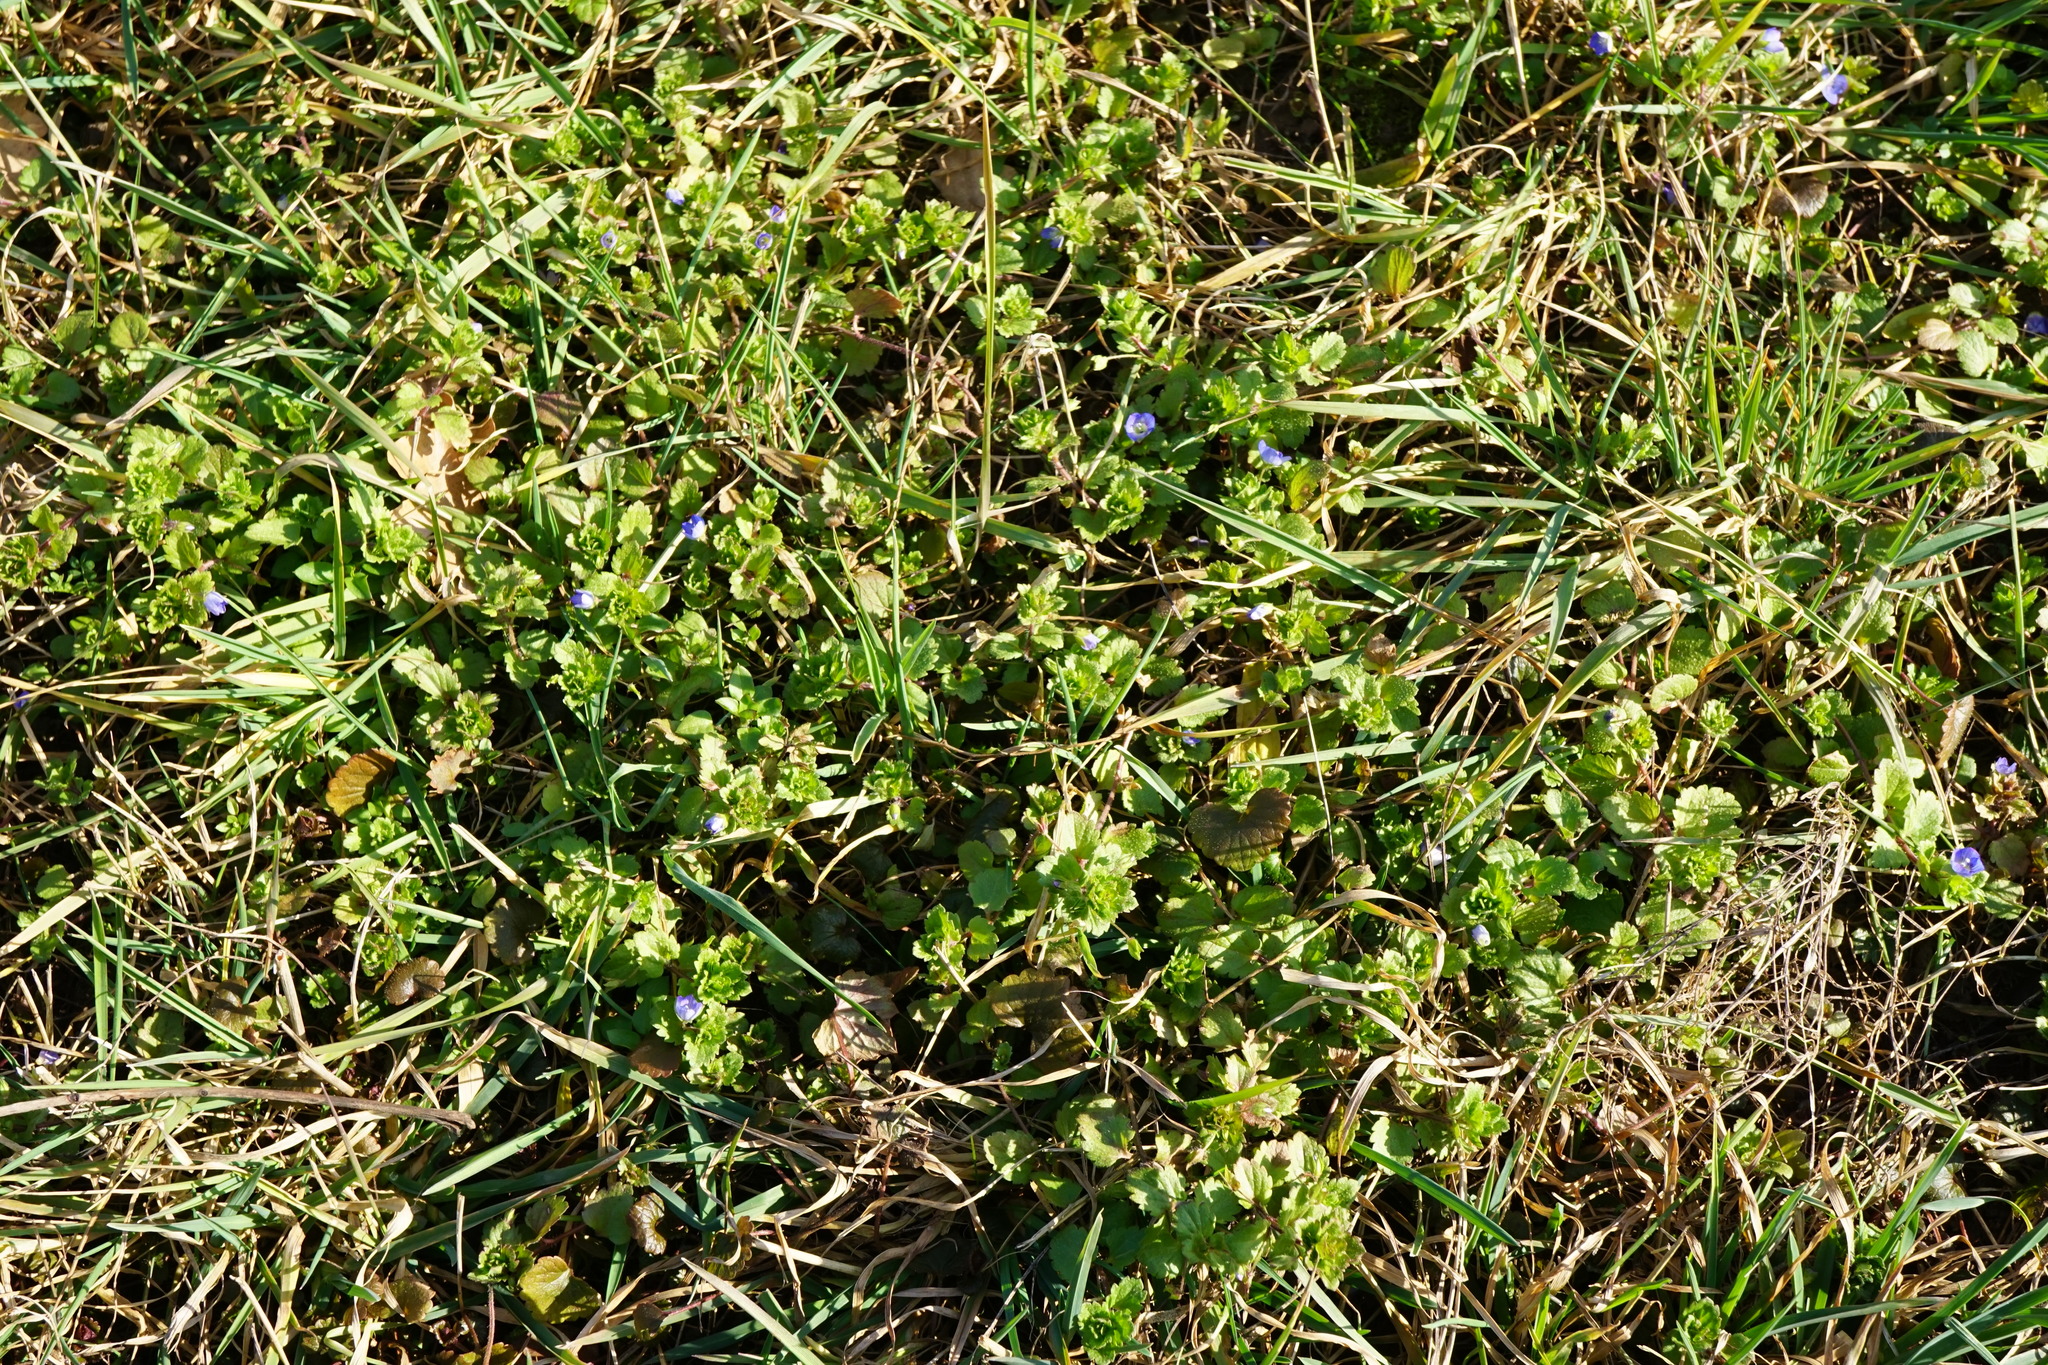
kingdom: Plantae
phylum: Tracheophyta
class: Magnoliopsida
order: Lamiales
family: Plantaginaceae
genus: Veronica
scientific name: Veronica persica
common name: Common field-speedwell
